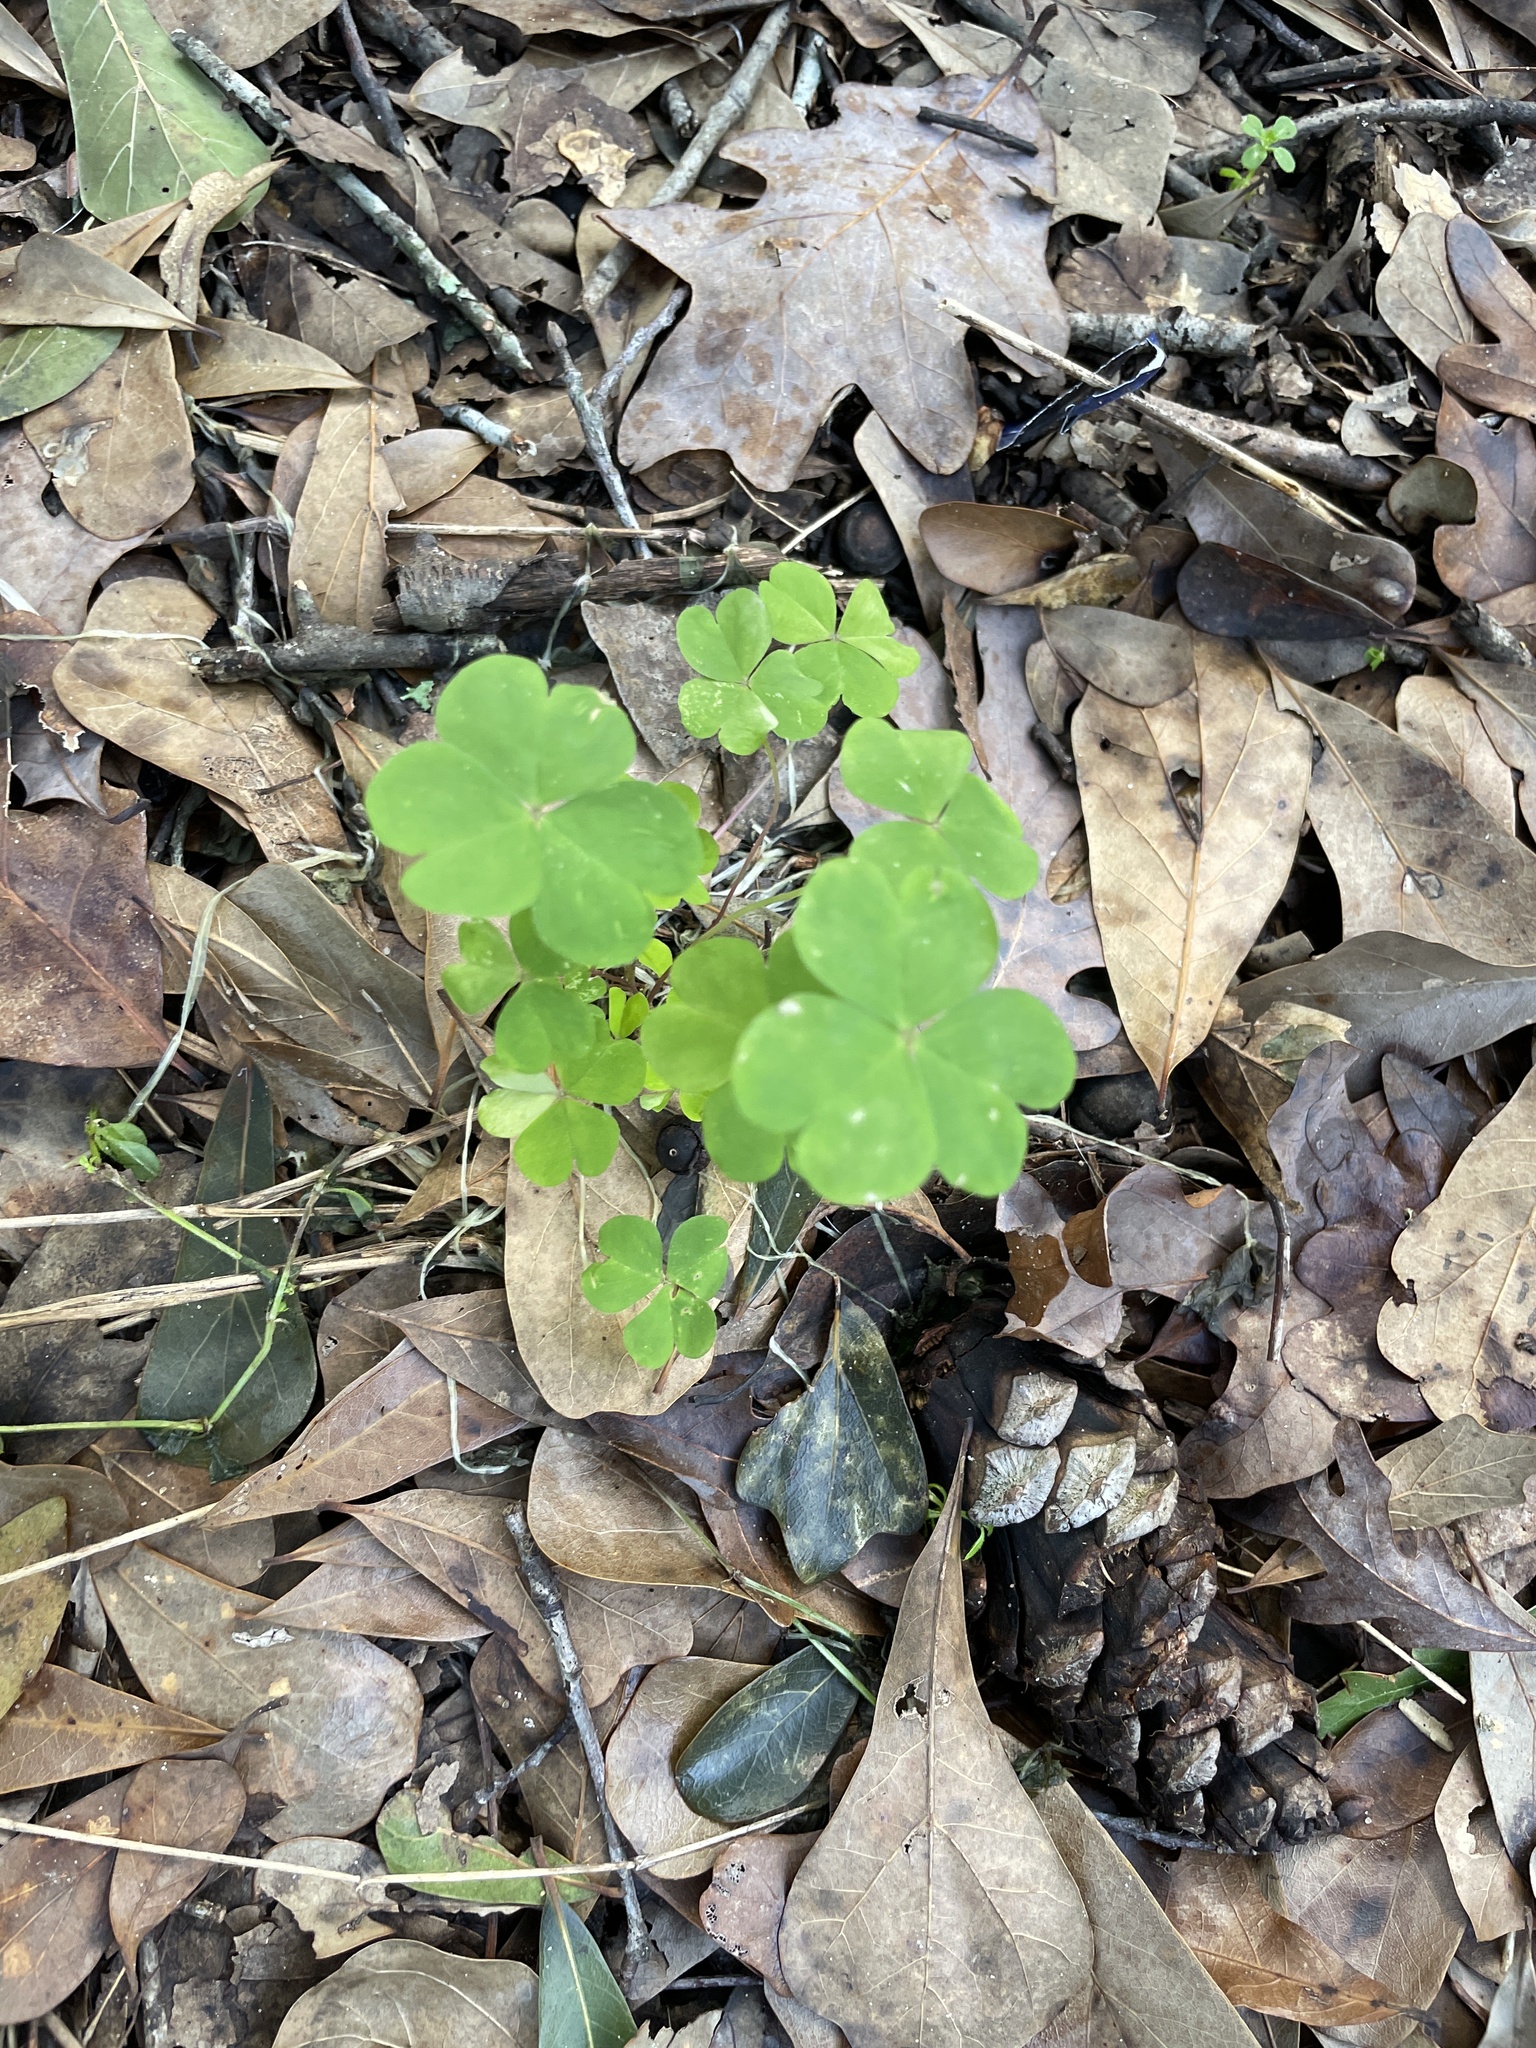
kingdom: Plantae
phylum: Tracheophyta
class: Magnoliopsida
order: Oxalidales
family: Oxalidaceae
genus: Oxalis
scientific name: Oxalis debilis
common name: Large-flowered pink-sorrel
